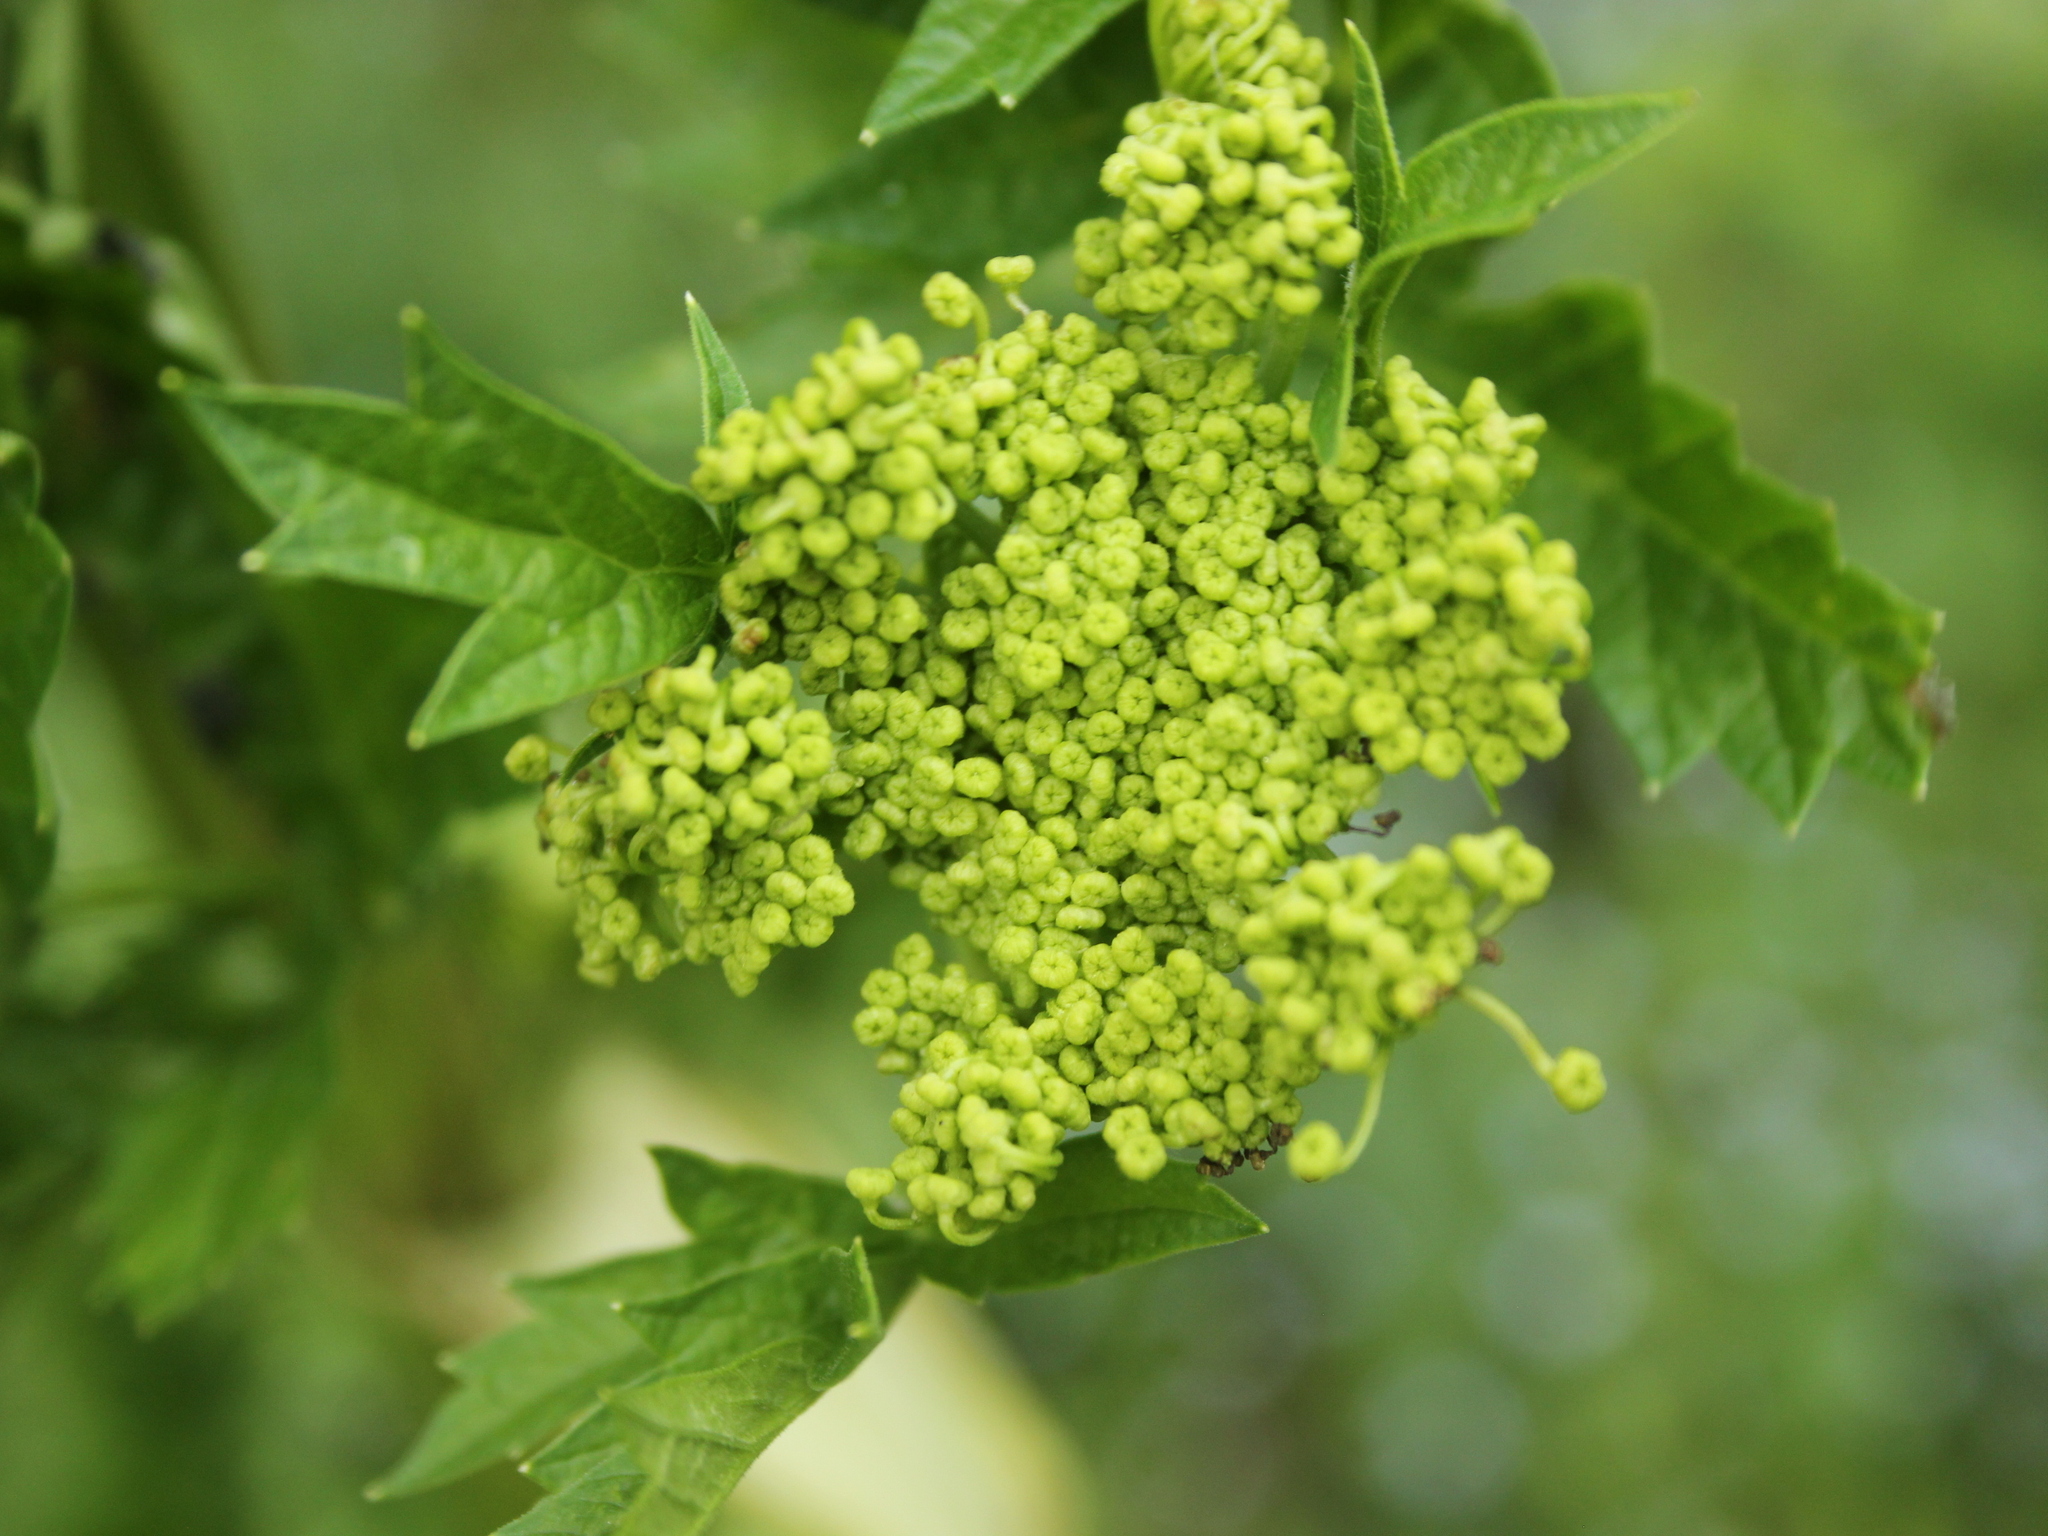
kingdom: Plantae
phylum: Tracheophyta
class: Magnoliopsida
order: Apiales
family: Apiaceae
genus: Pastinaca
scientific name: Pastinaca sativa
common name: Wild parsnip
